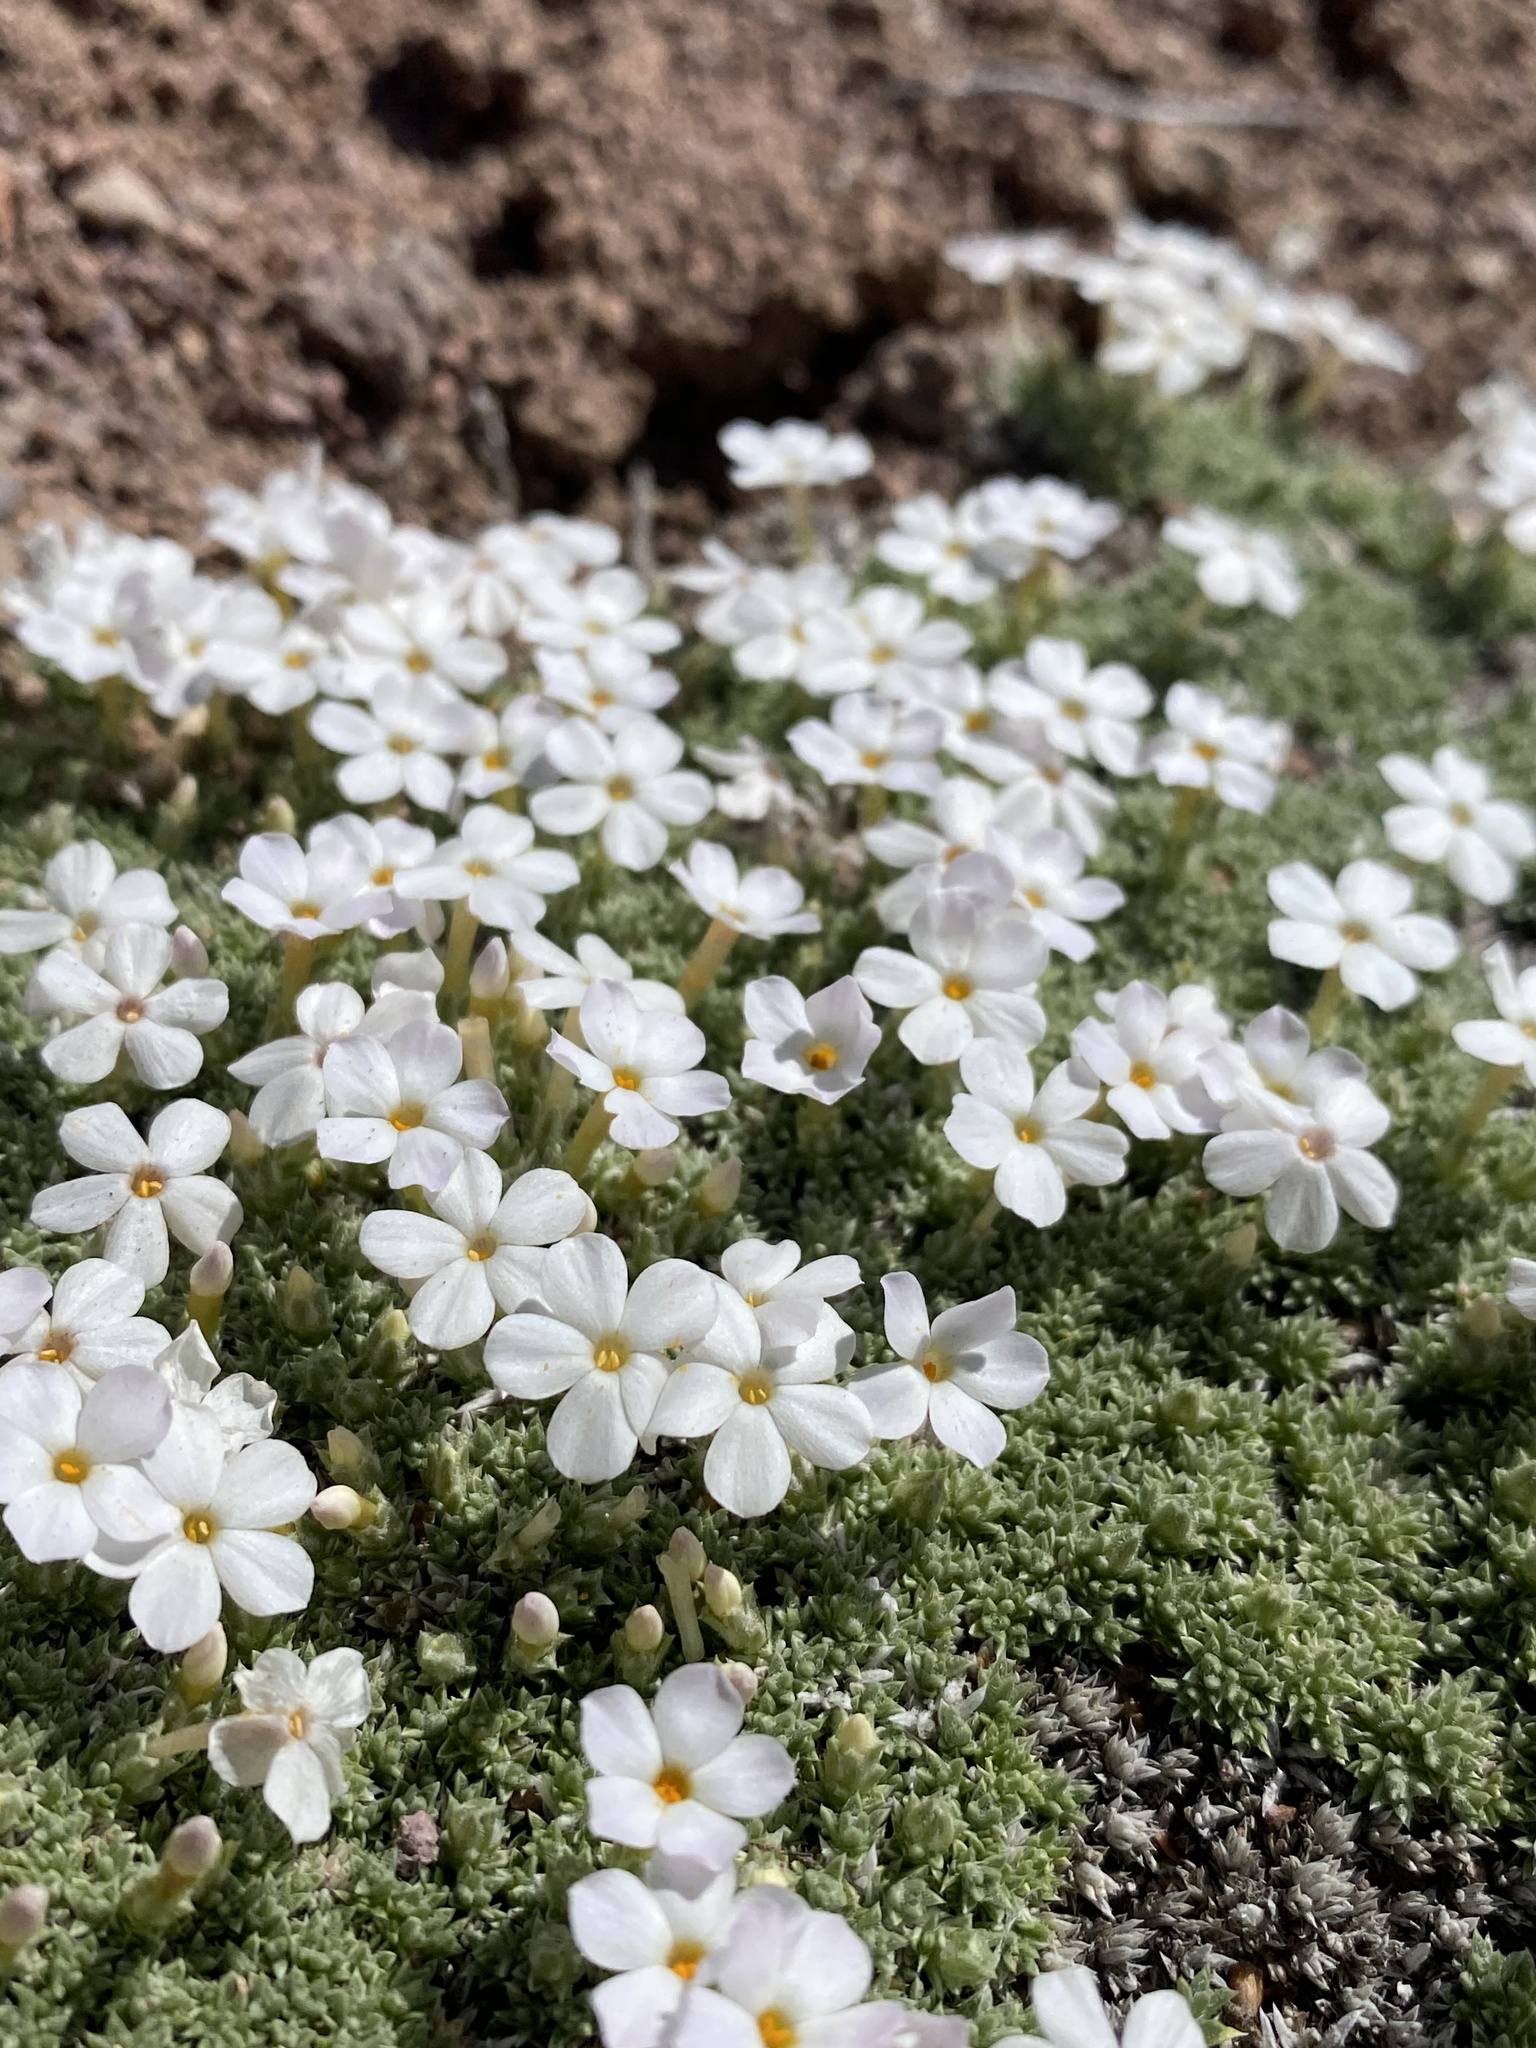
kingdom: Plantae
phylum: Tracheophyta
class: Magnoliopsida
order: Ericales
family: Polemoniaceae
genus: Phlox
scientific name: Phlox griseola
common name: Gray-leaf phlox
